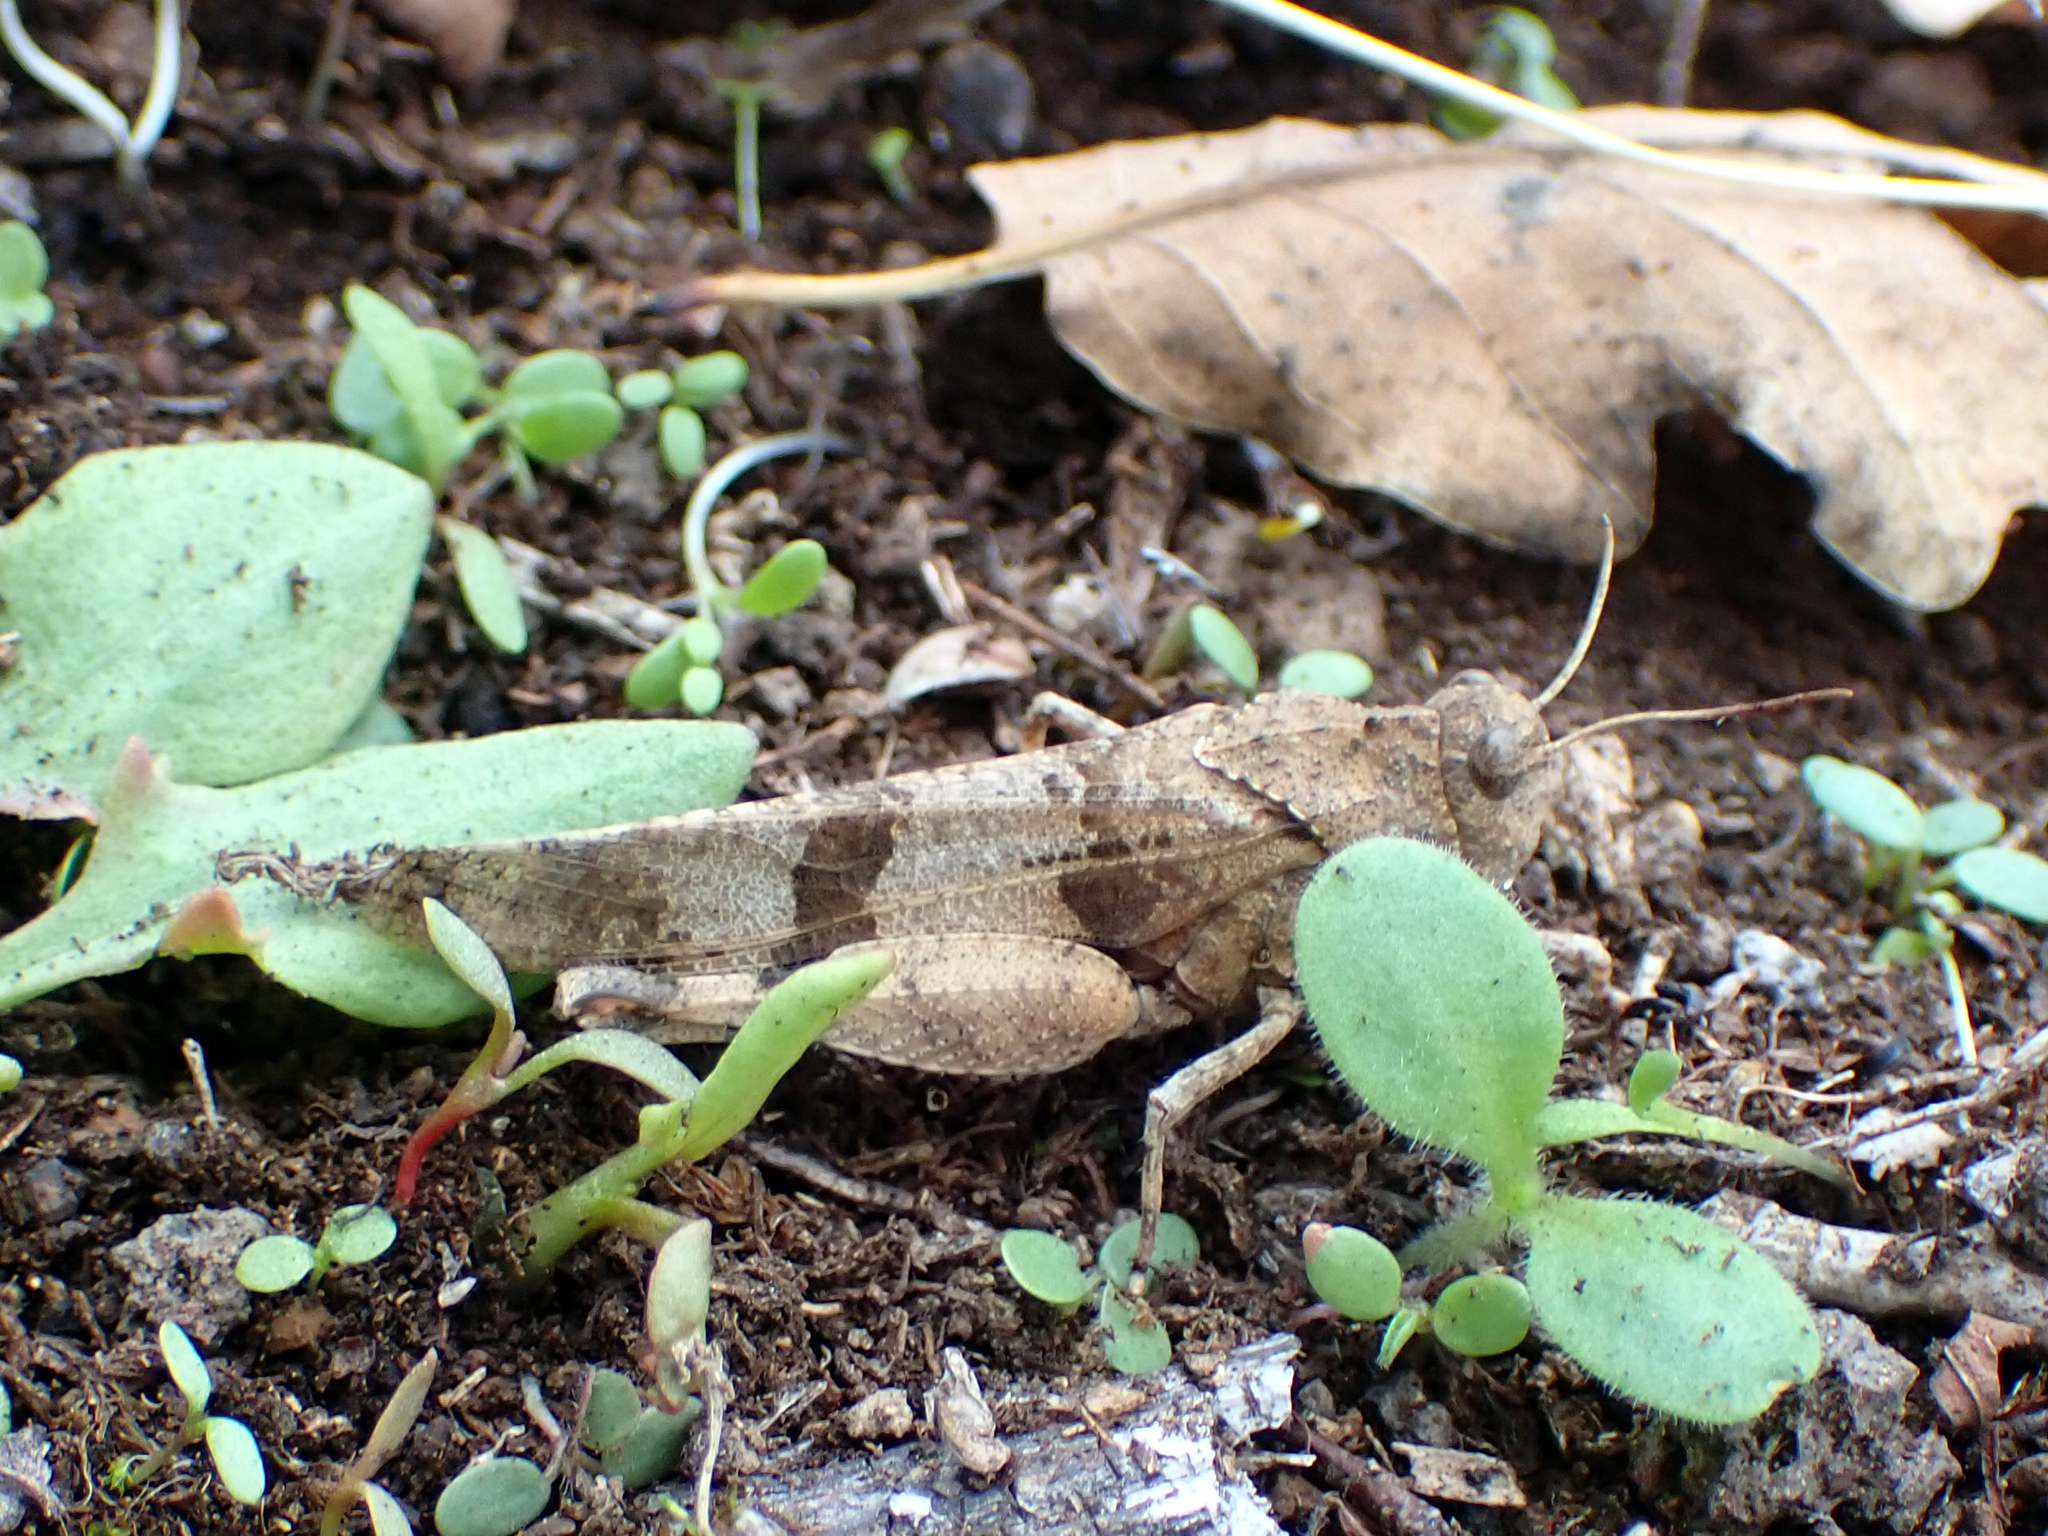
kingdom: Animalia
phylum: Arthropoda
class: Insecta
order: Orthoptera
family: Acrididae
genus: Oedipoda
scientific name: Oedipoda caerulescens
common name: Blue-winged grasshopper
